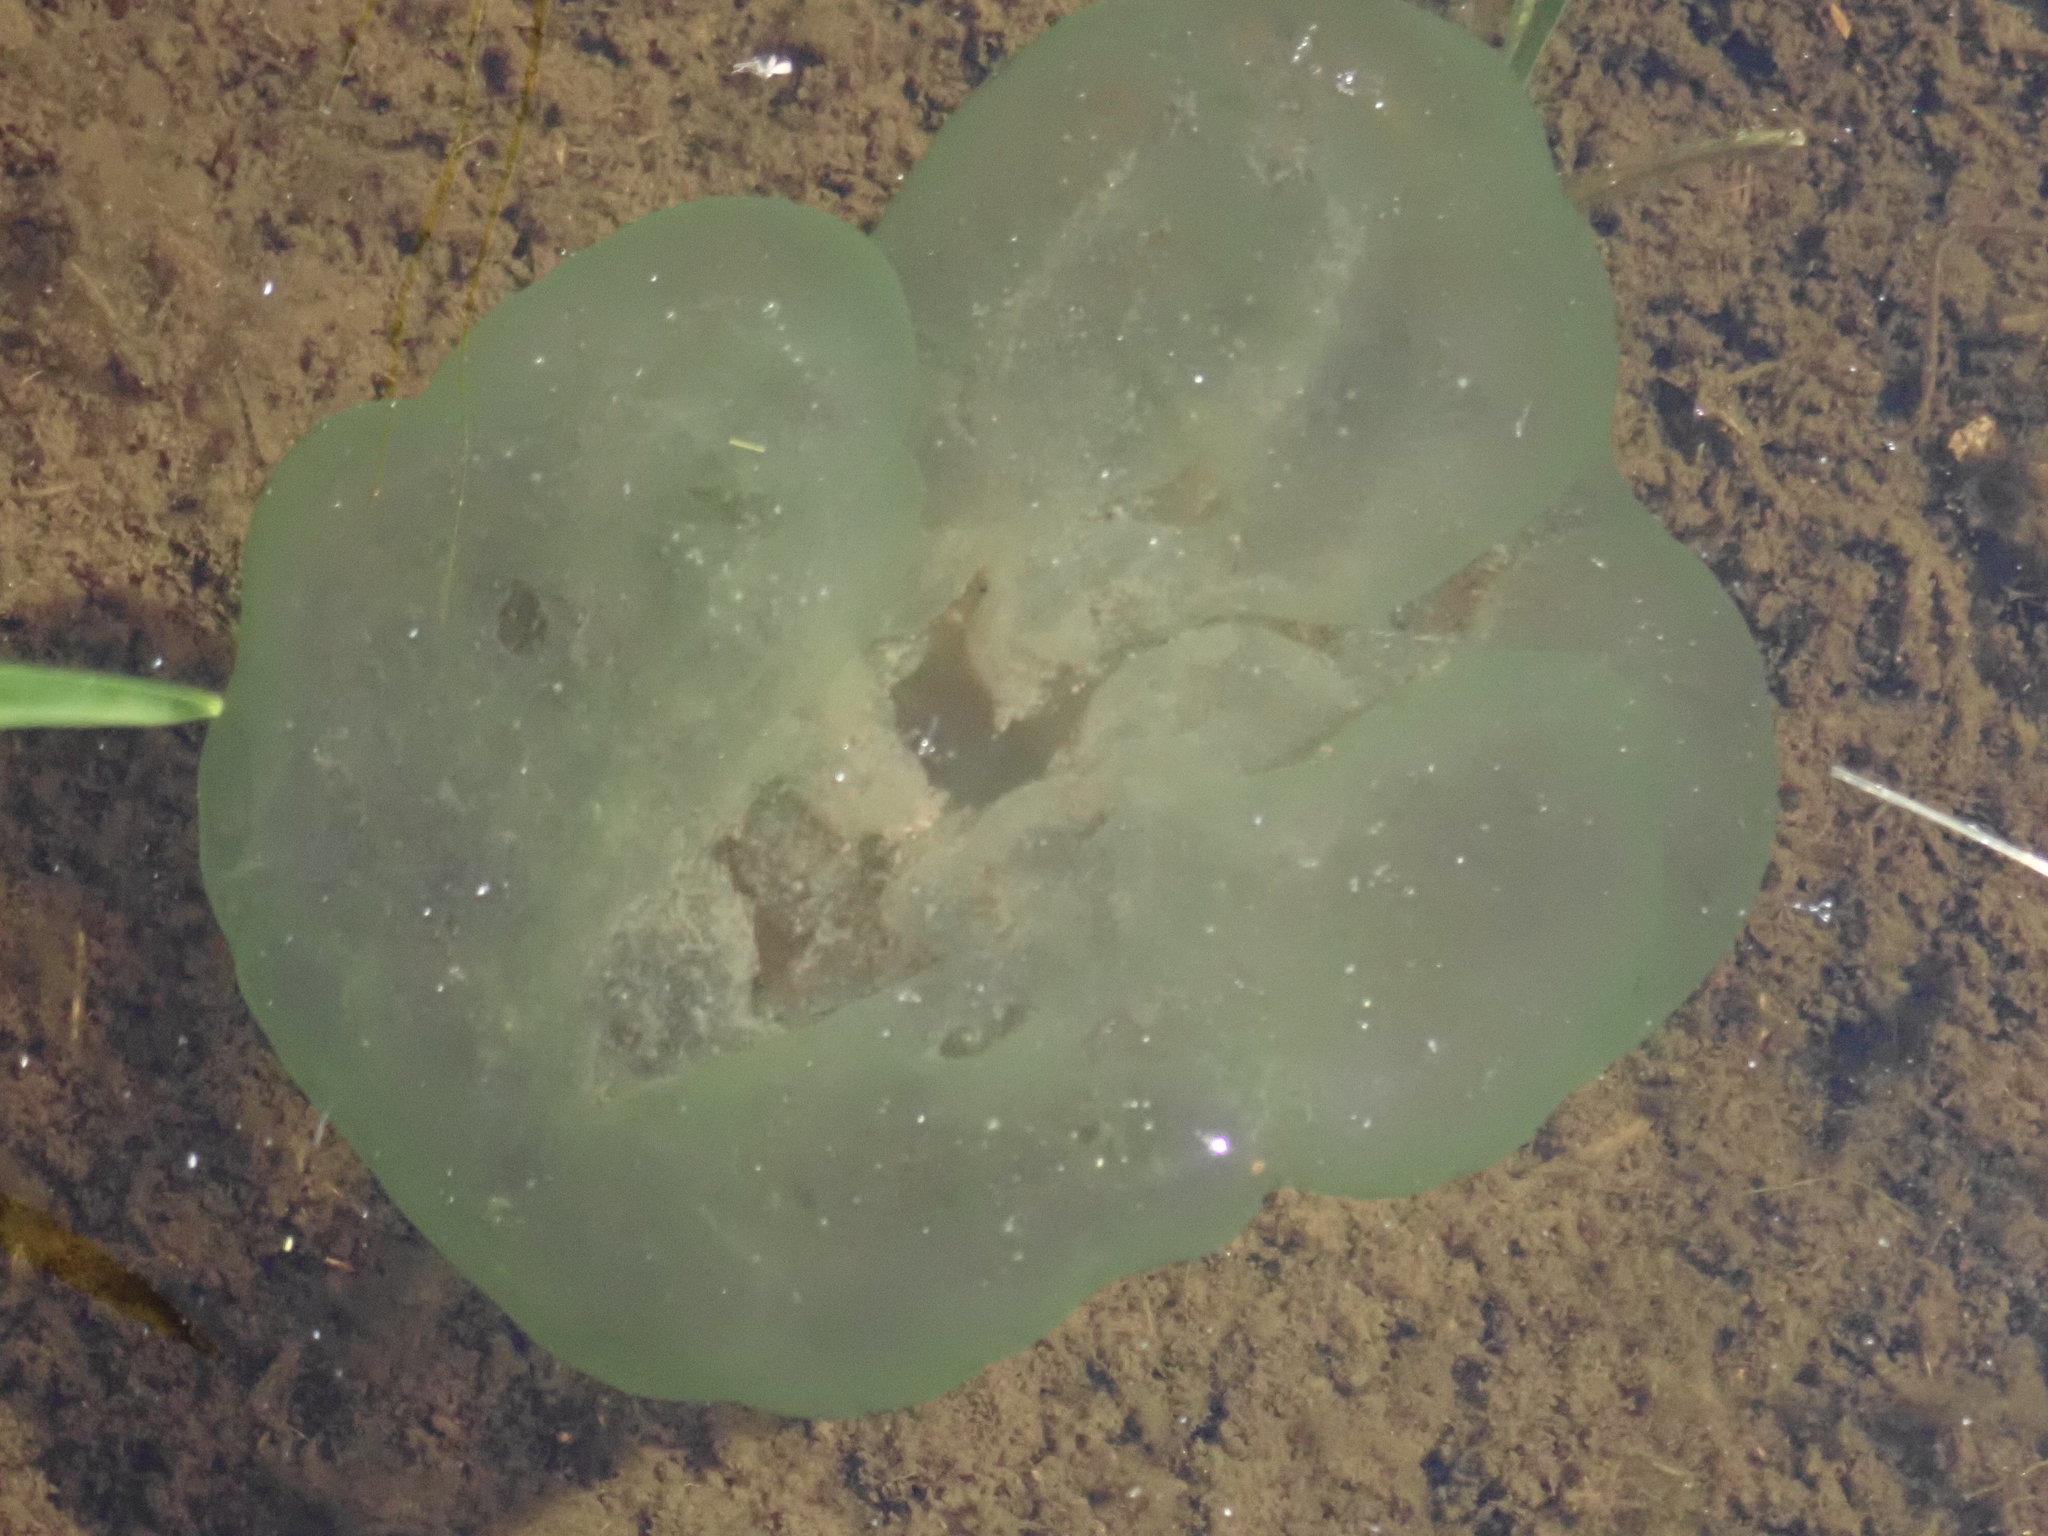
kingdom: Chromista
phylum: Ciliophora
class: Oligohymenophorea
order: Peritrichida
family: Ophrydiidae
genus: Ophrydium
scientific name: Ophrydium
